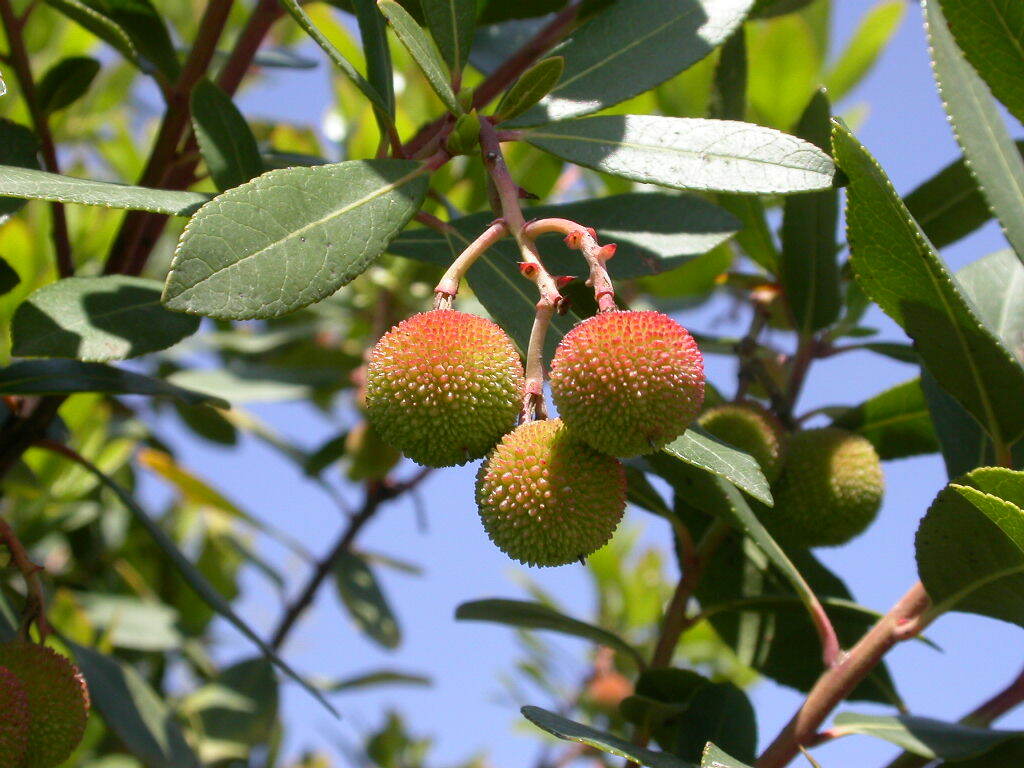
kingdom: Plantae
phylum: Tracheophyta
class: Magnoliopsida
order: Ericales
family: Ericaceae
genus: Arbutus
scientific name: Arbutus unedo
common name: Strawberry-tree
